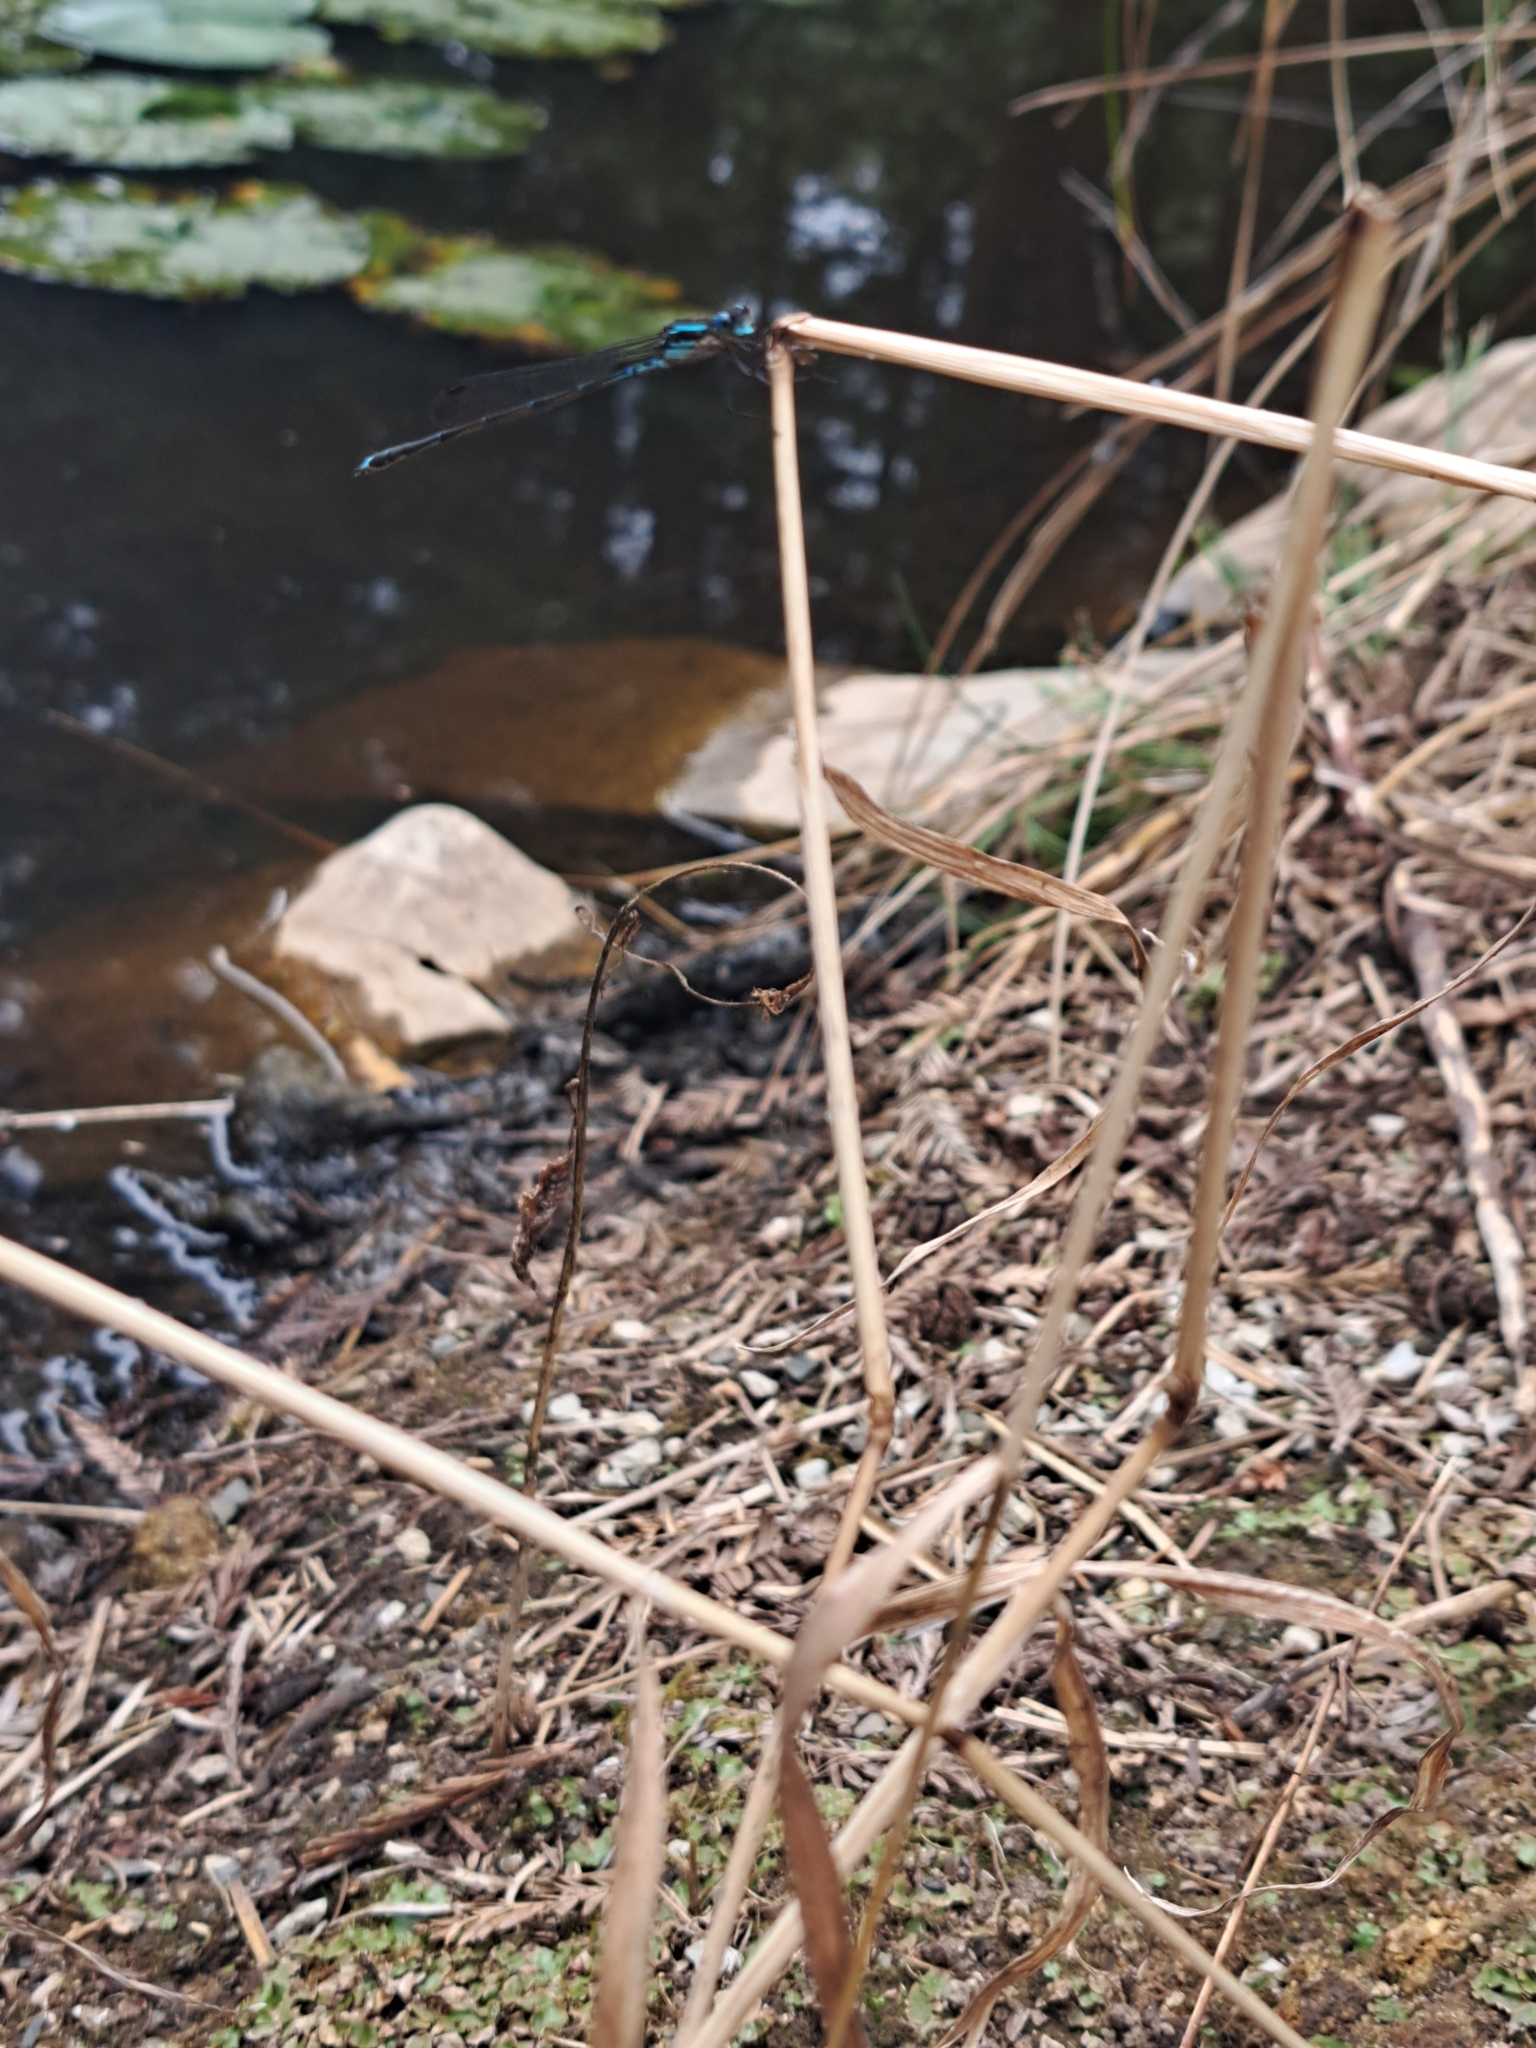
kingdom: Animalia
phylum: Arthropoda
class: Insecta
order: Odonata
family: Lestidae
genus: Austrolestes
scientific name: Austrolestes colensonis
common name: Blue damselfly
